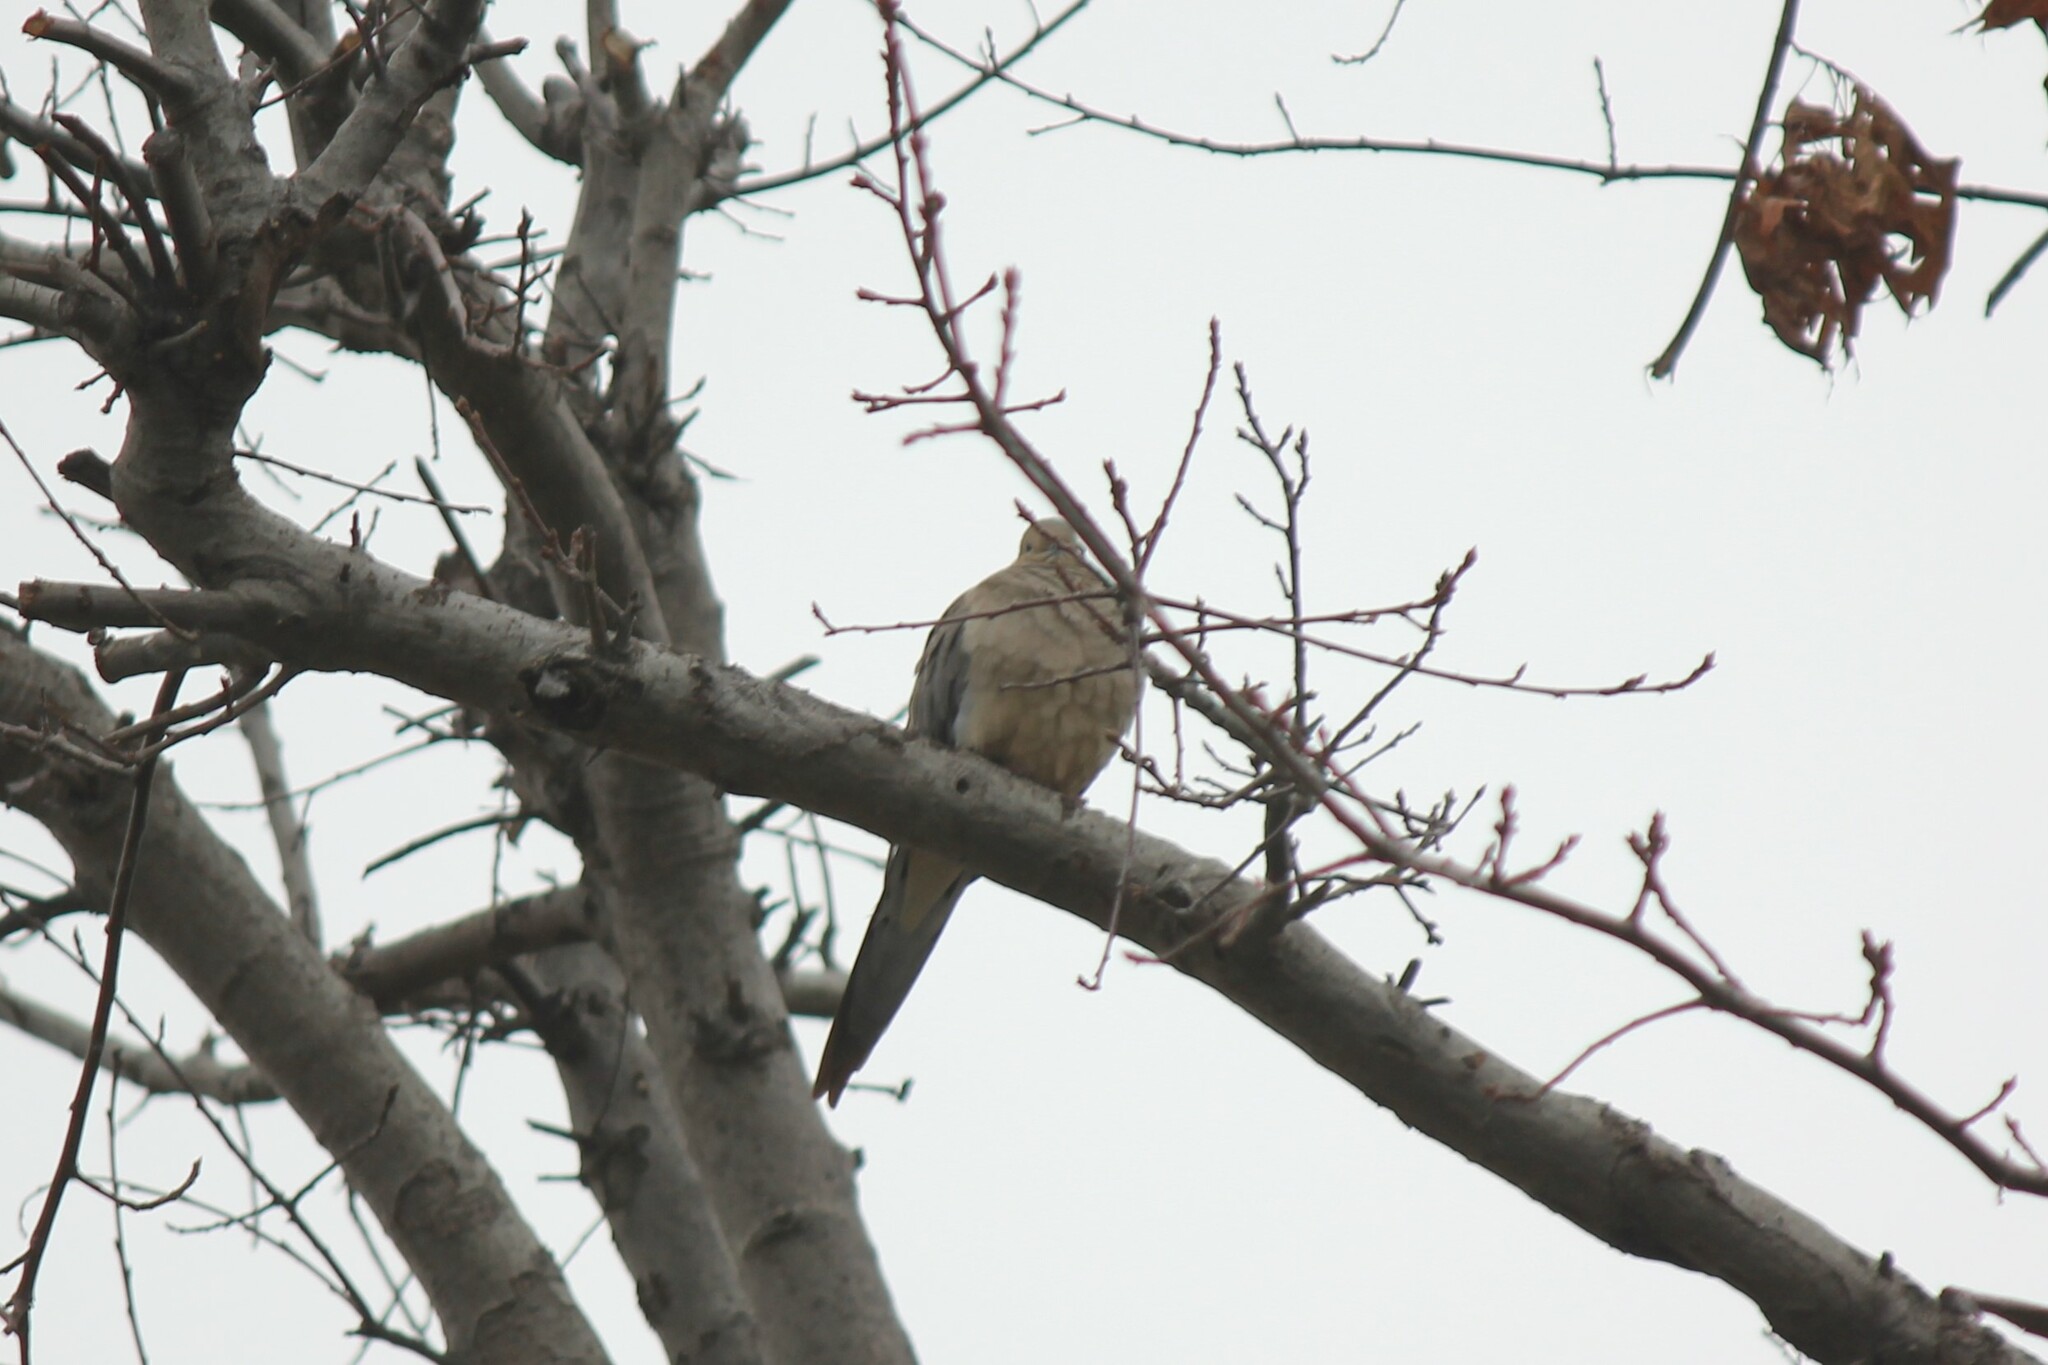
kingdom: Animalia
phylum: Chordata
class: Aves
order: Columbiformes
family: Columbidae
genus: Zenaida
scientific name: Zenaida macroura
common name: Mourning dove
